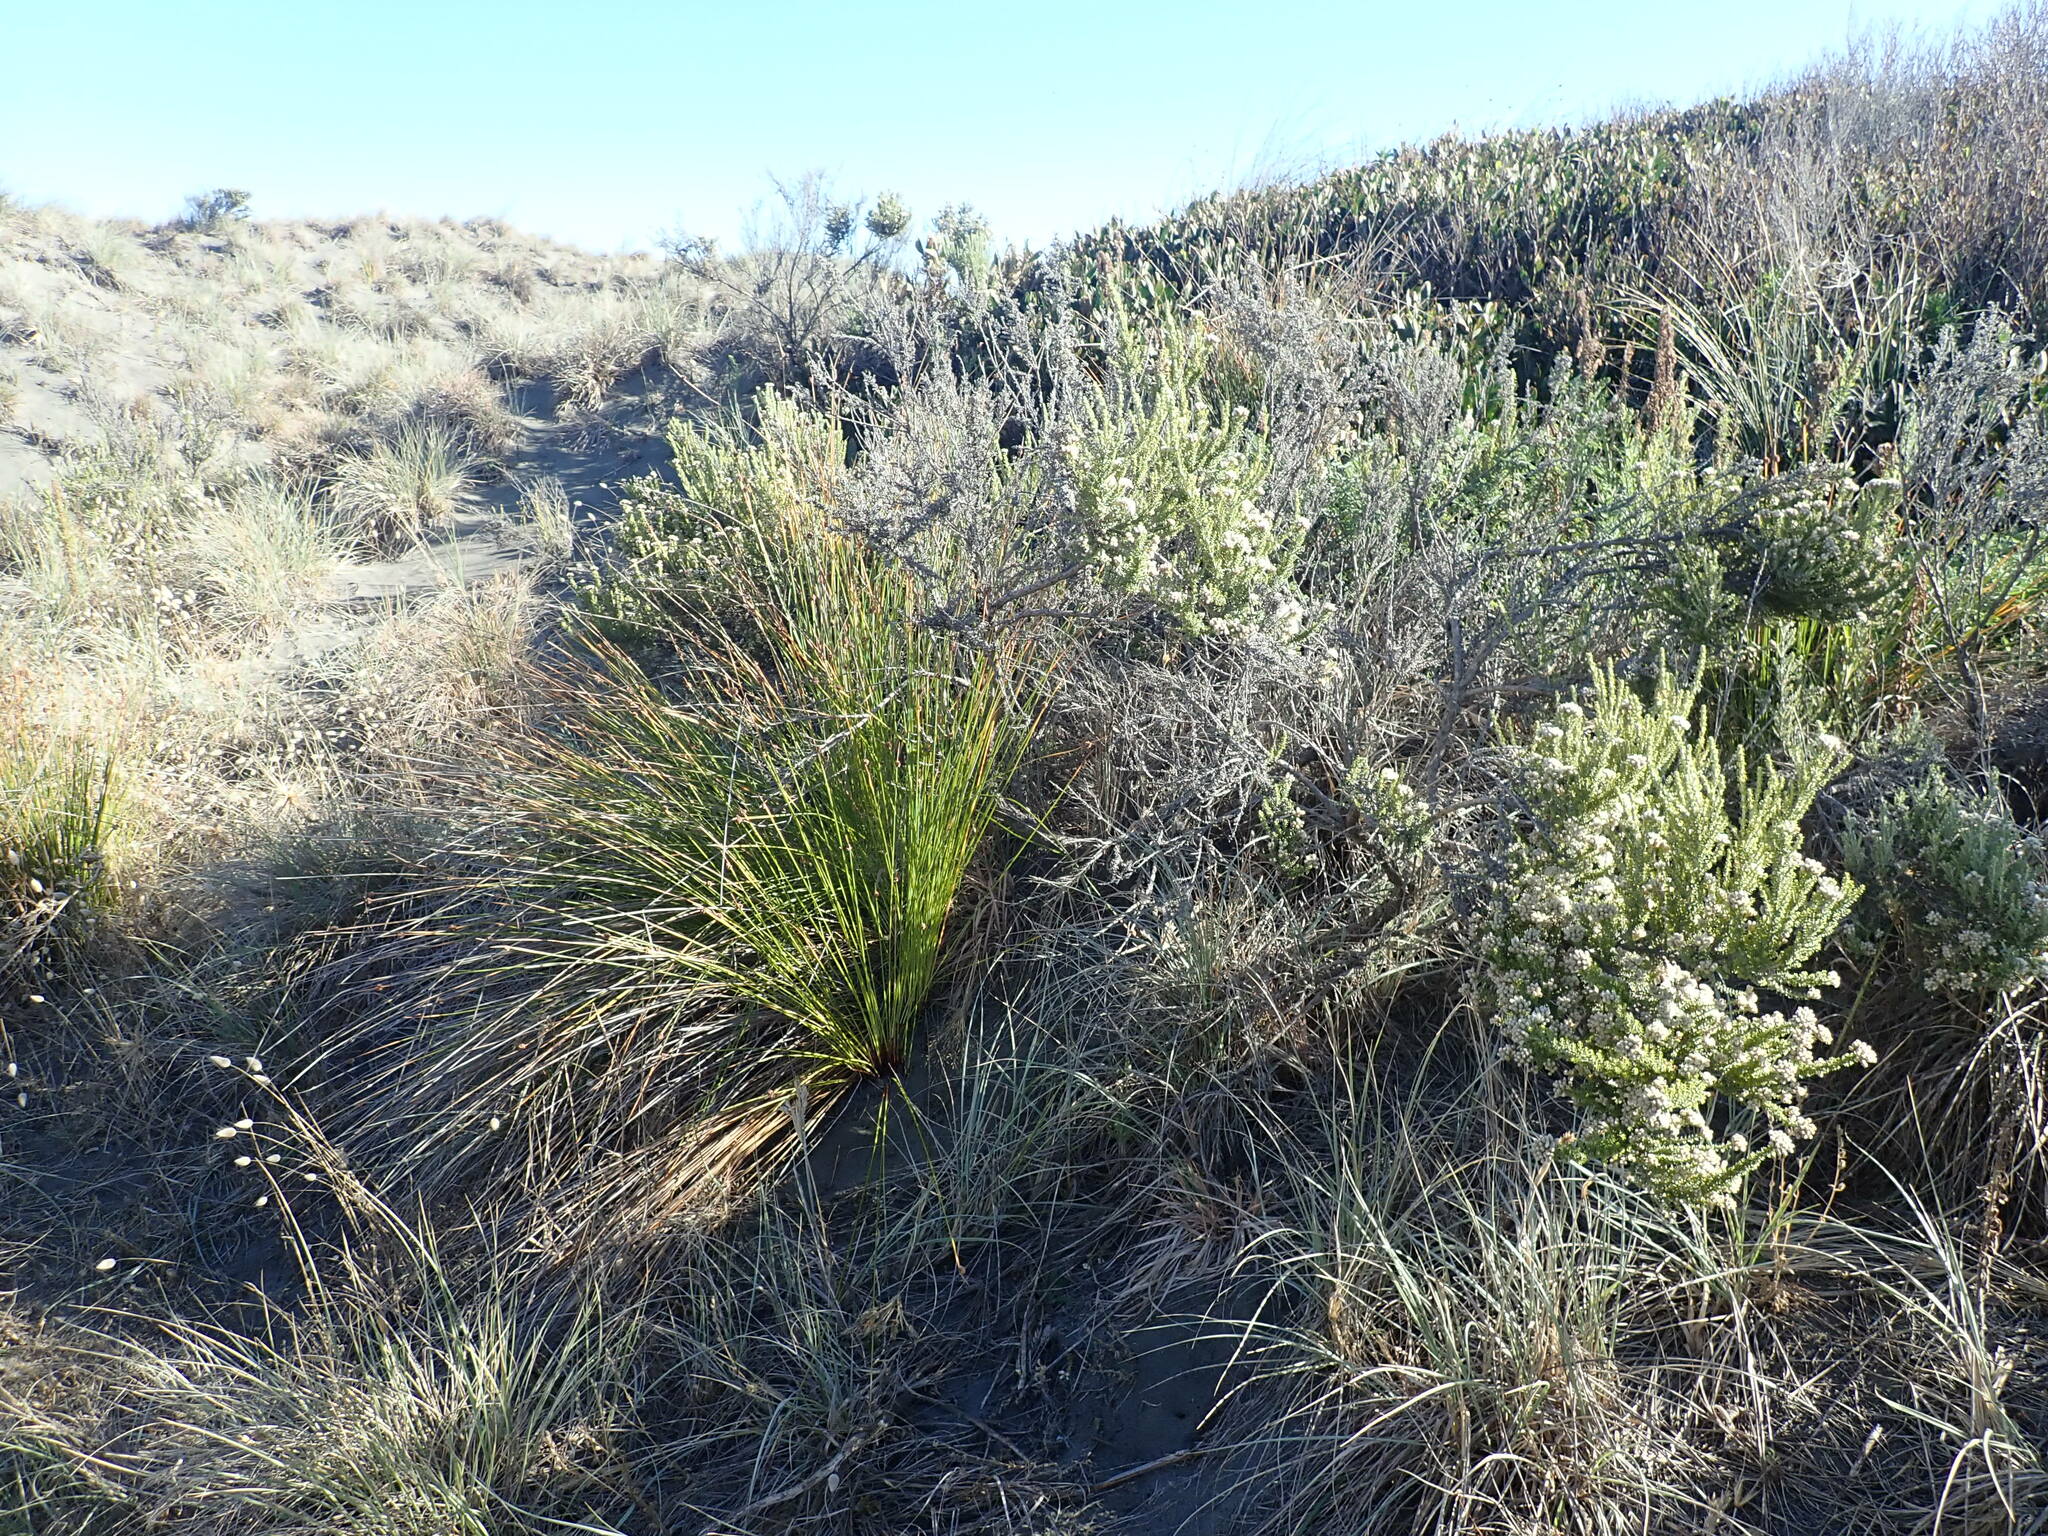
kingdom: Plantae
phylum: Tracheophyta
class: Magnoliopsida
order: Asterales
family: Asteraceae
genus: Ozothamnus
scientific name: Ozothamnus leptophyllus
